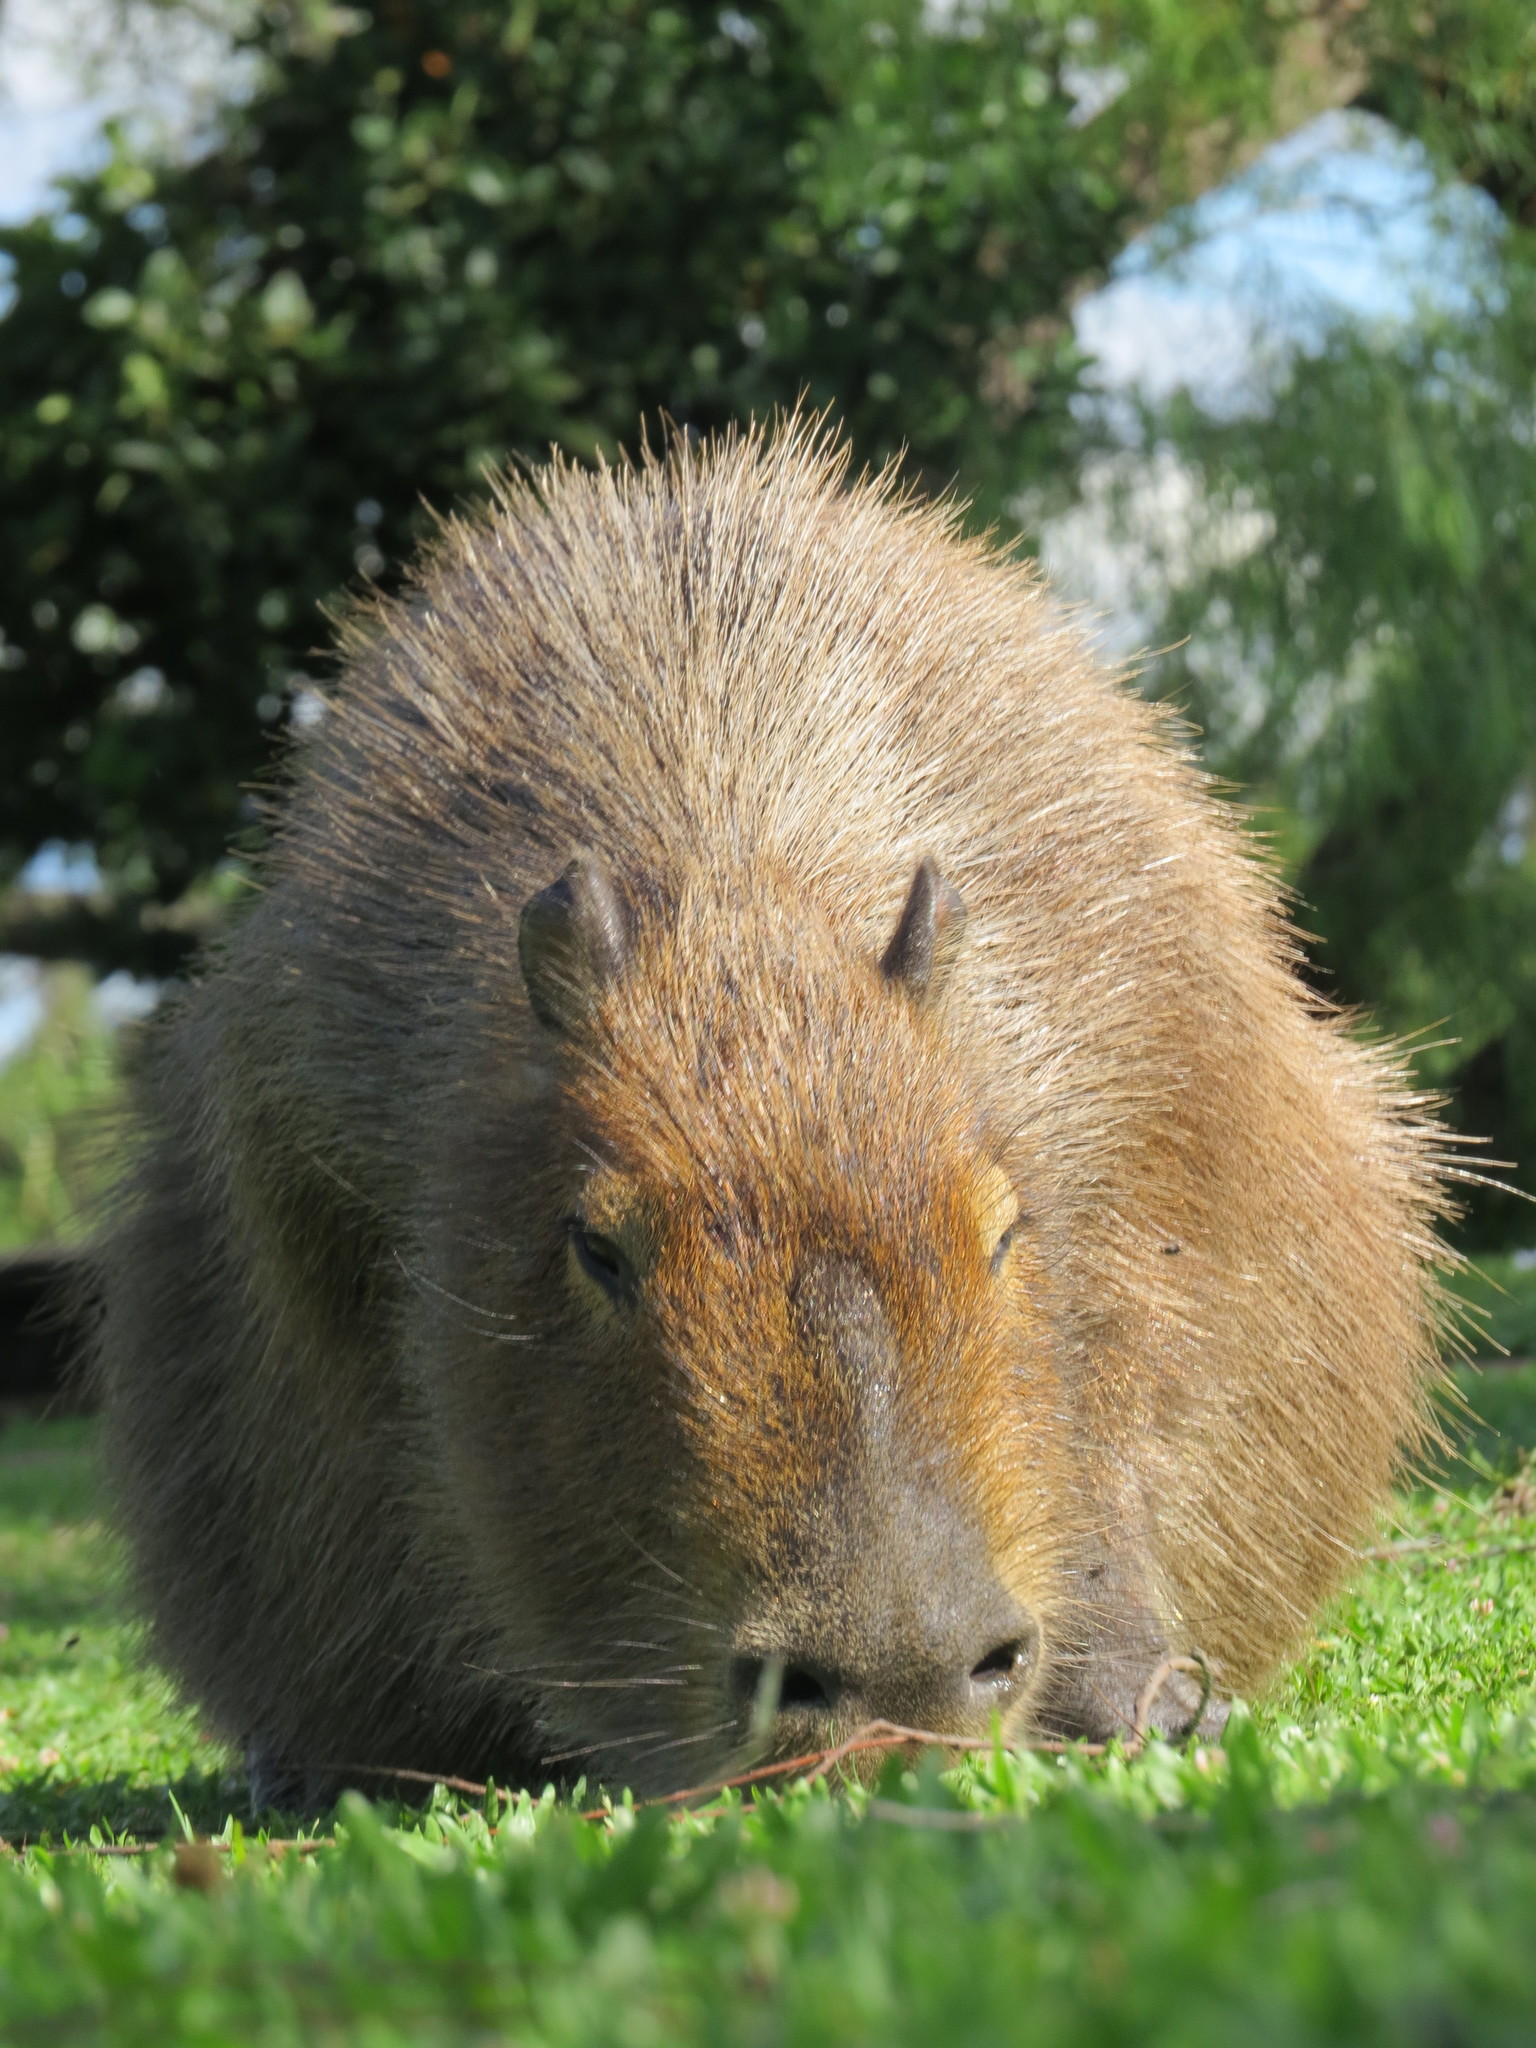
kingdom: Animalia
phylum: Chordata
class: Mammalia
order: Rodentia
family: Caviidae
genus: Hydrochoerus
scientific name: Hydrochoerus hydrochaeris
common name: Capybara
